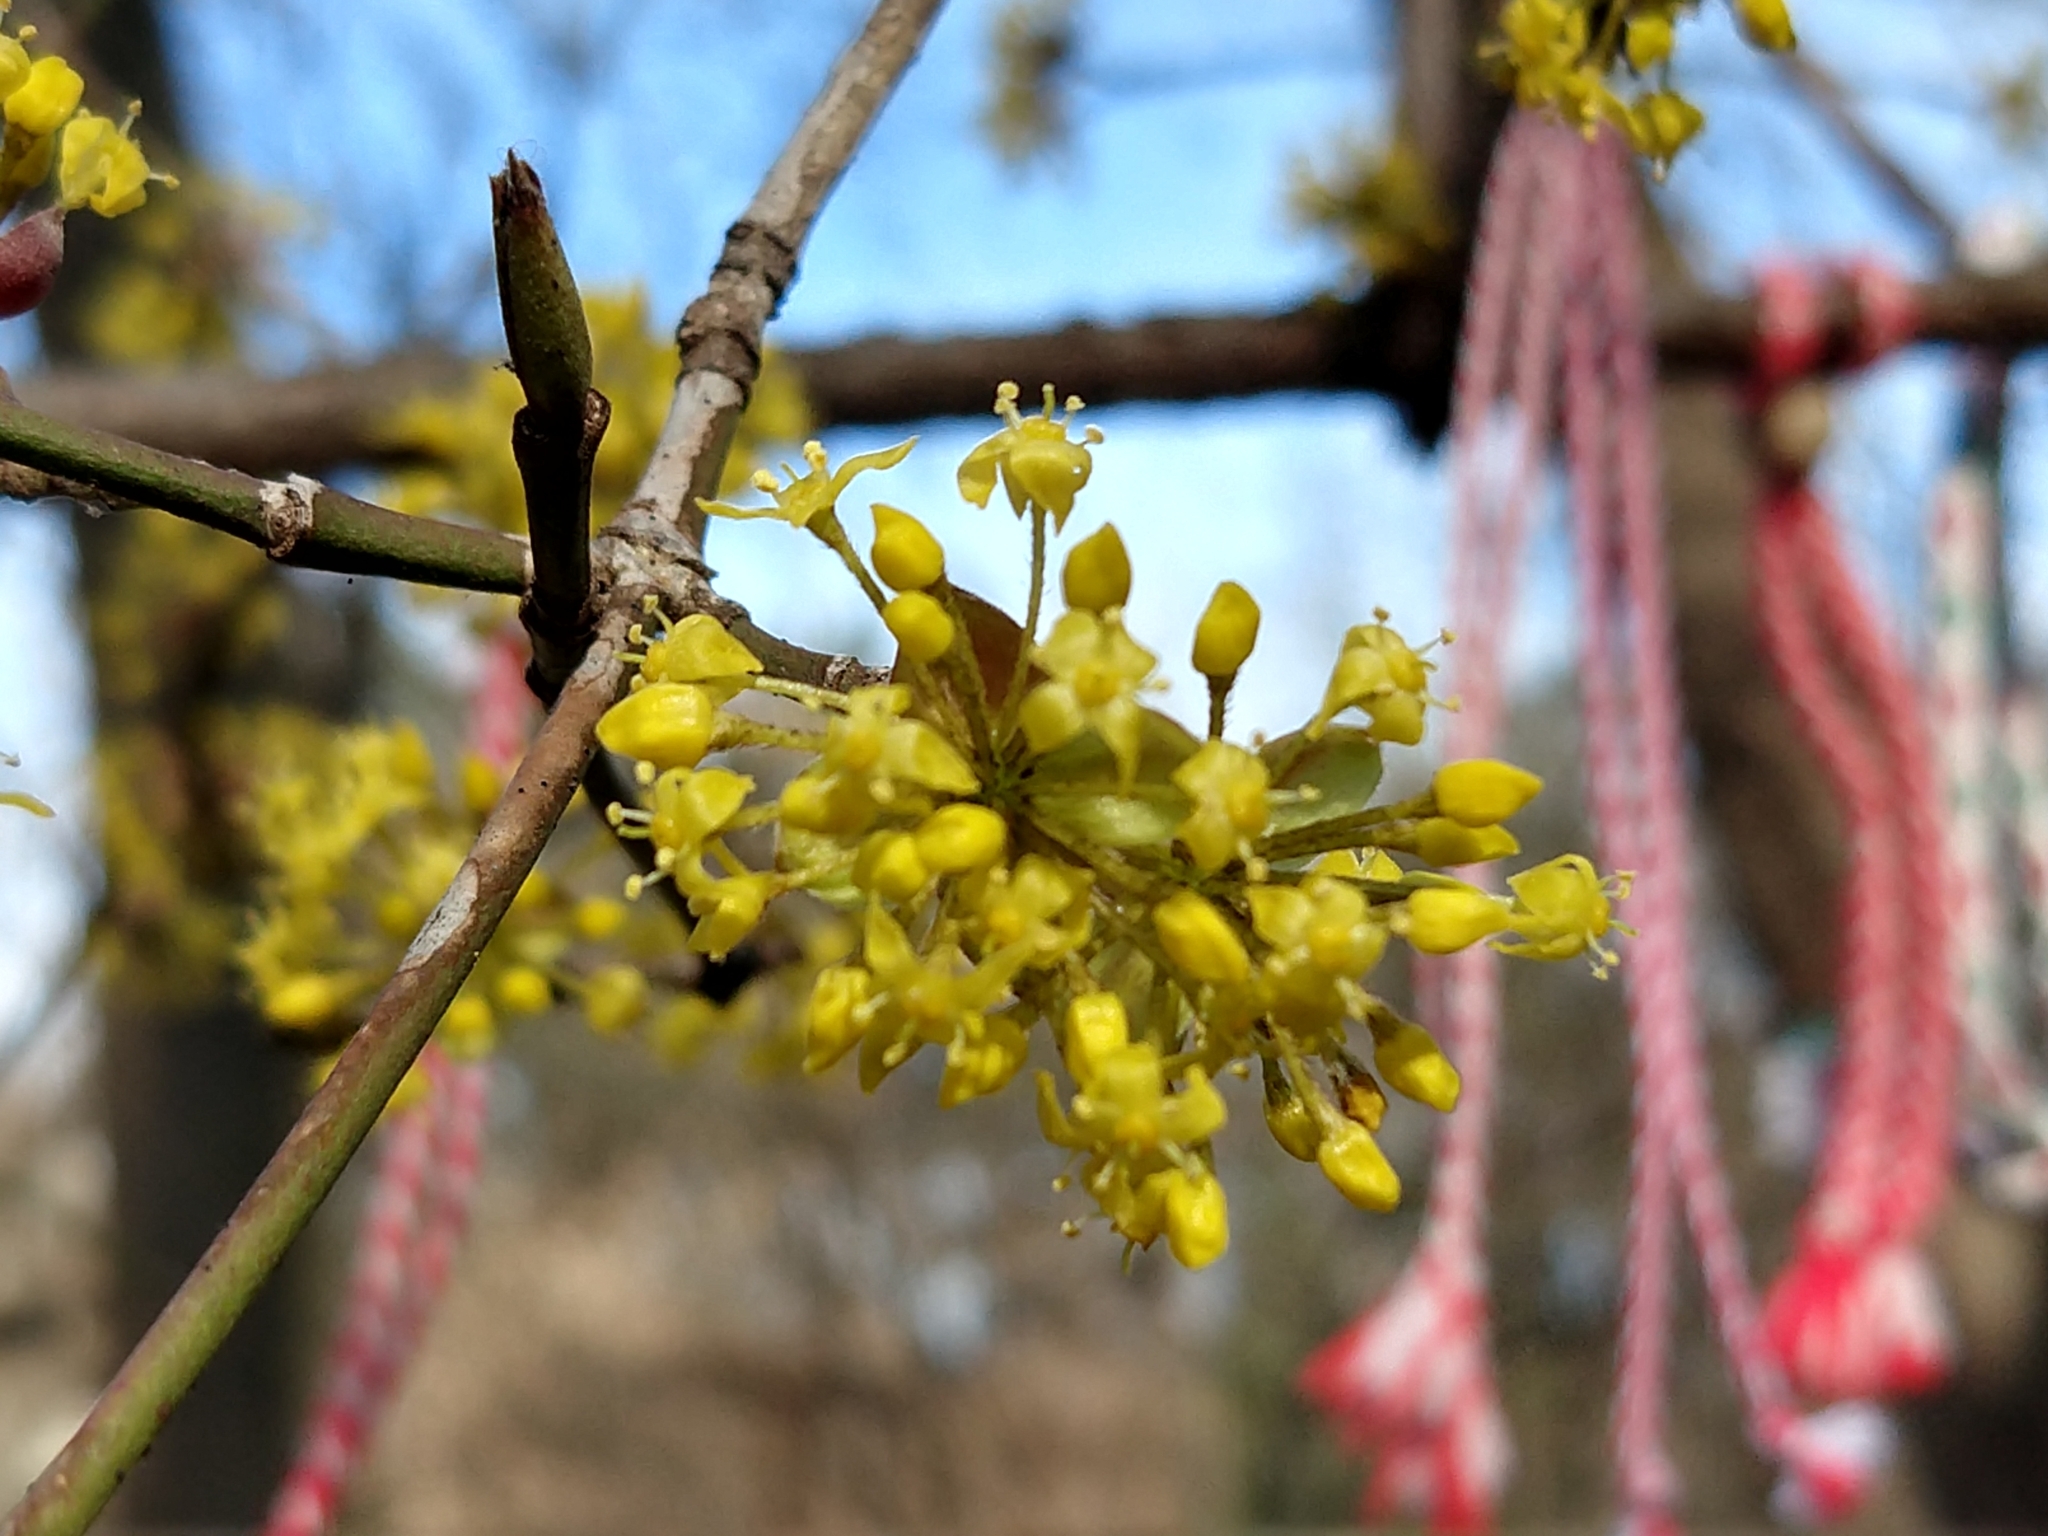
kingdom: Plantae
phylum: Tracheophyta
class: Magnoliopsida
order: Cornales
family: Cornaceae
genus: Cornus
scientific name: Cornus mas
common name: Cornelian-cherry
